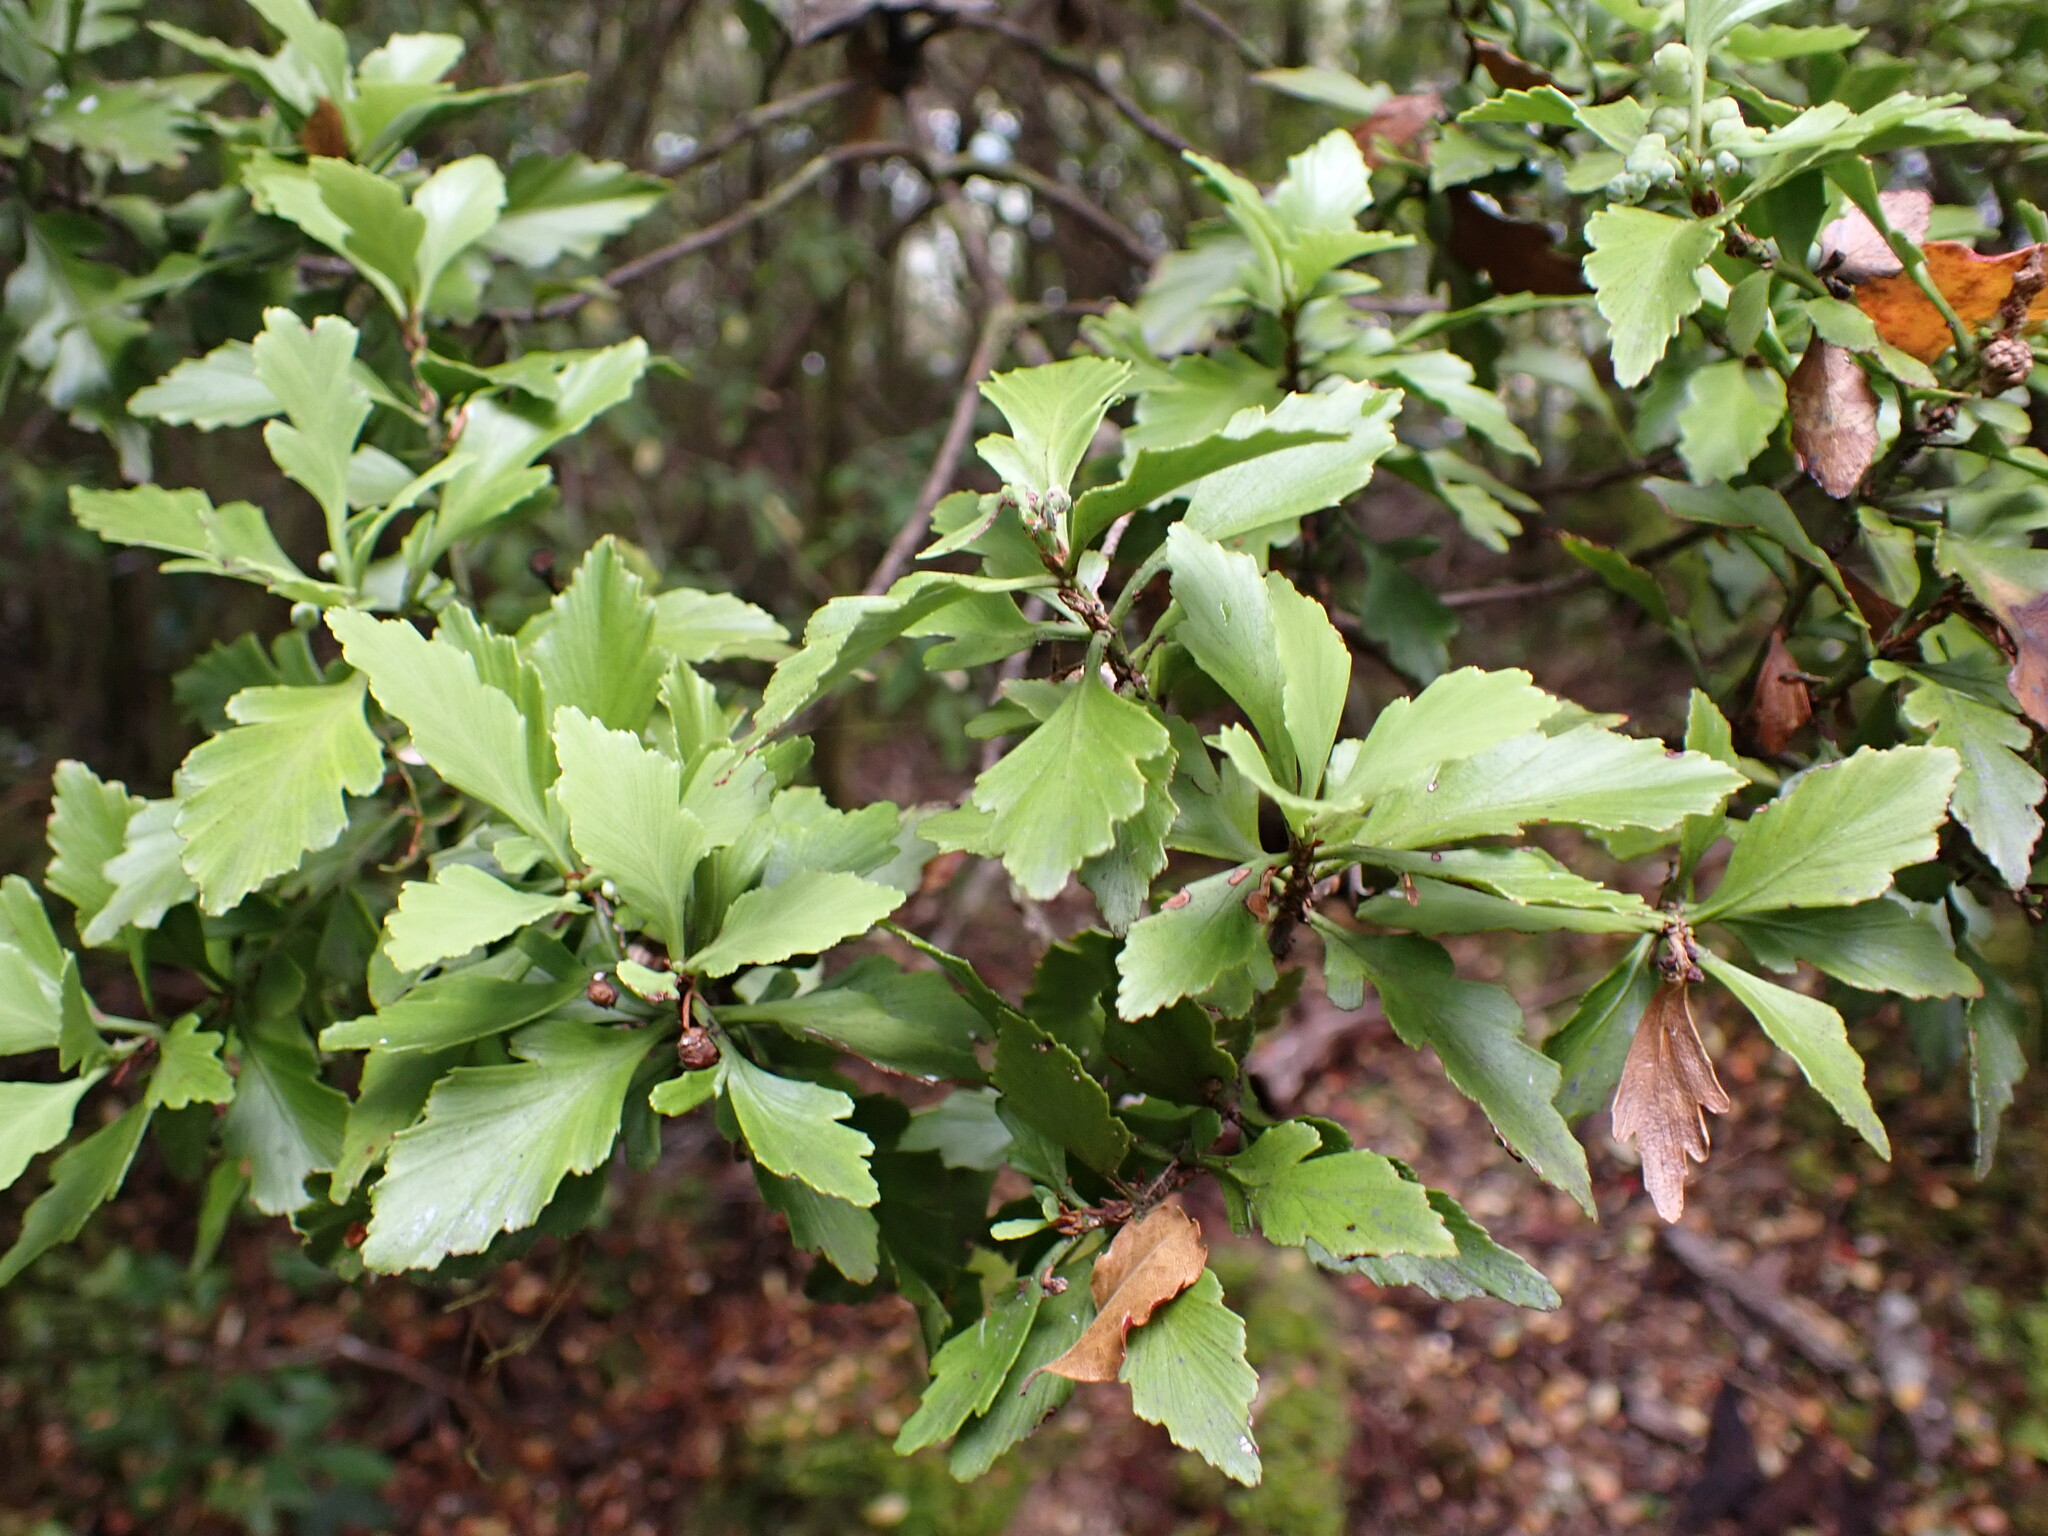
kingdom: Plantae
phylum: Tracheophyta
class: Pinopsida
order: Pinales
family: Phyllocladaceae
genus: Phyllocladus
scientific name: Phyllocladus trichomanoides
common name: Celery pine
